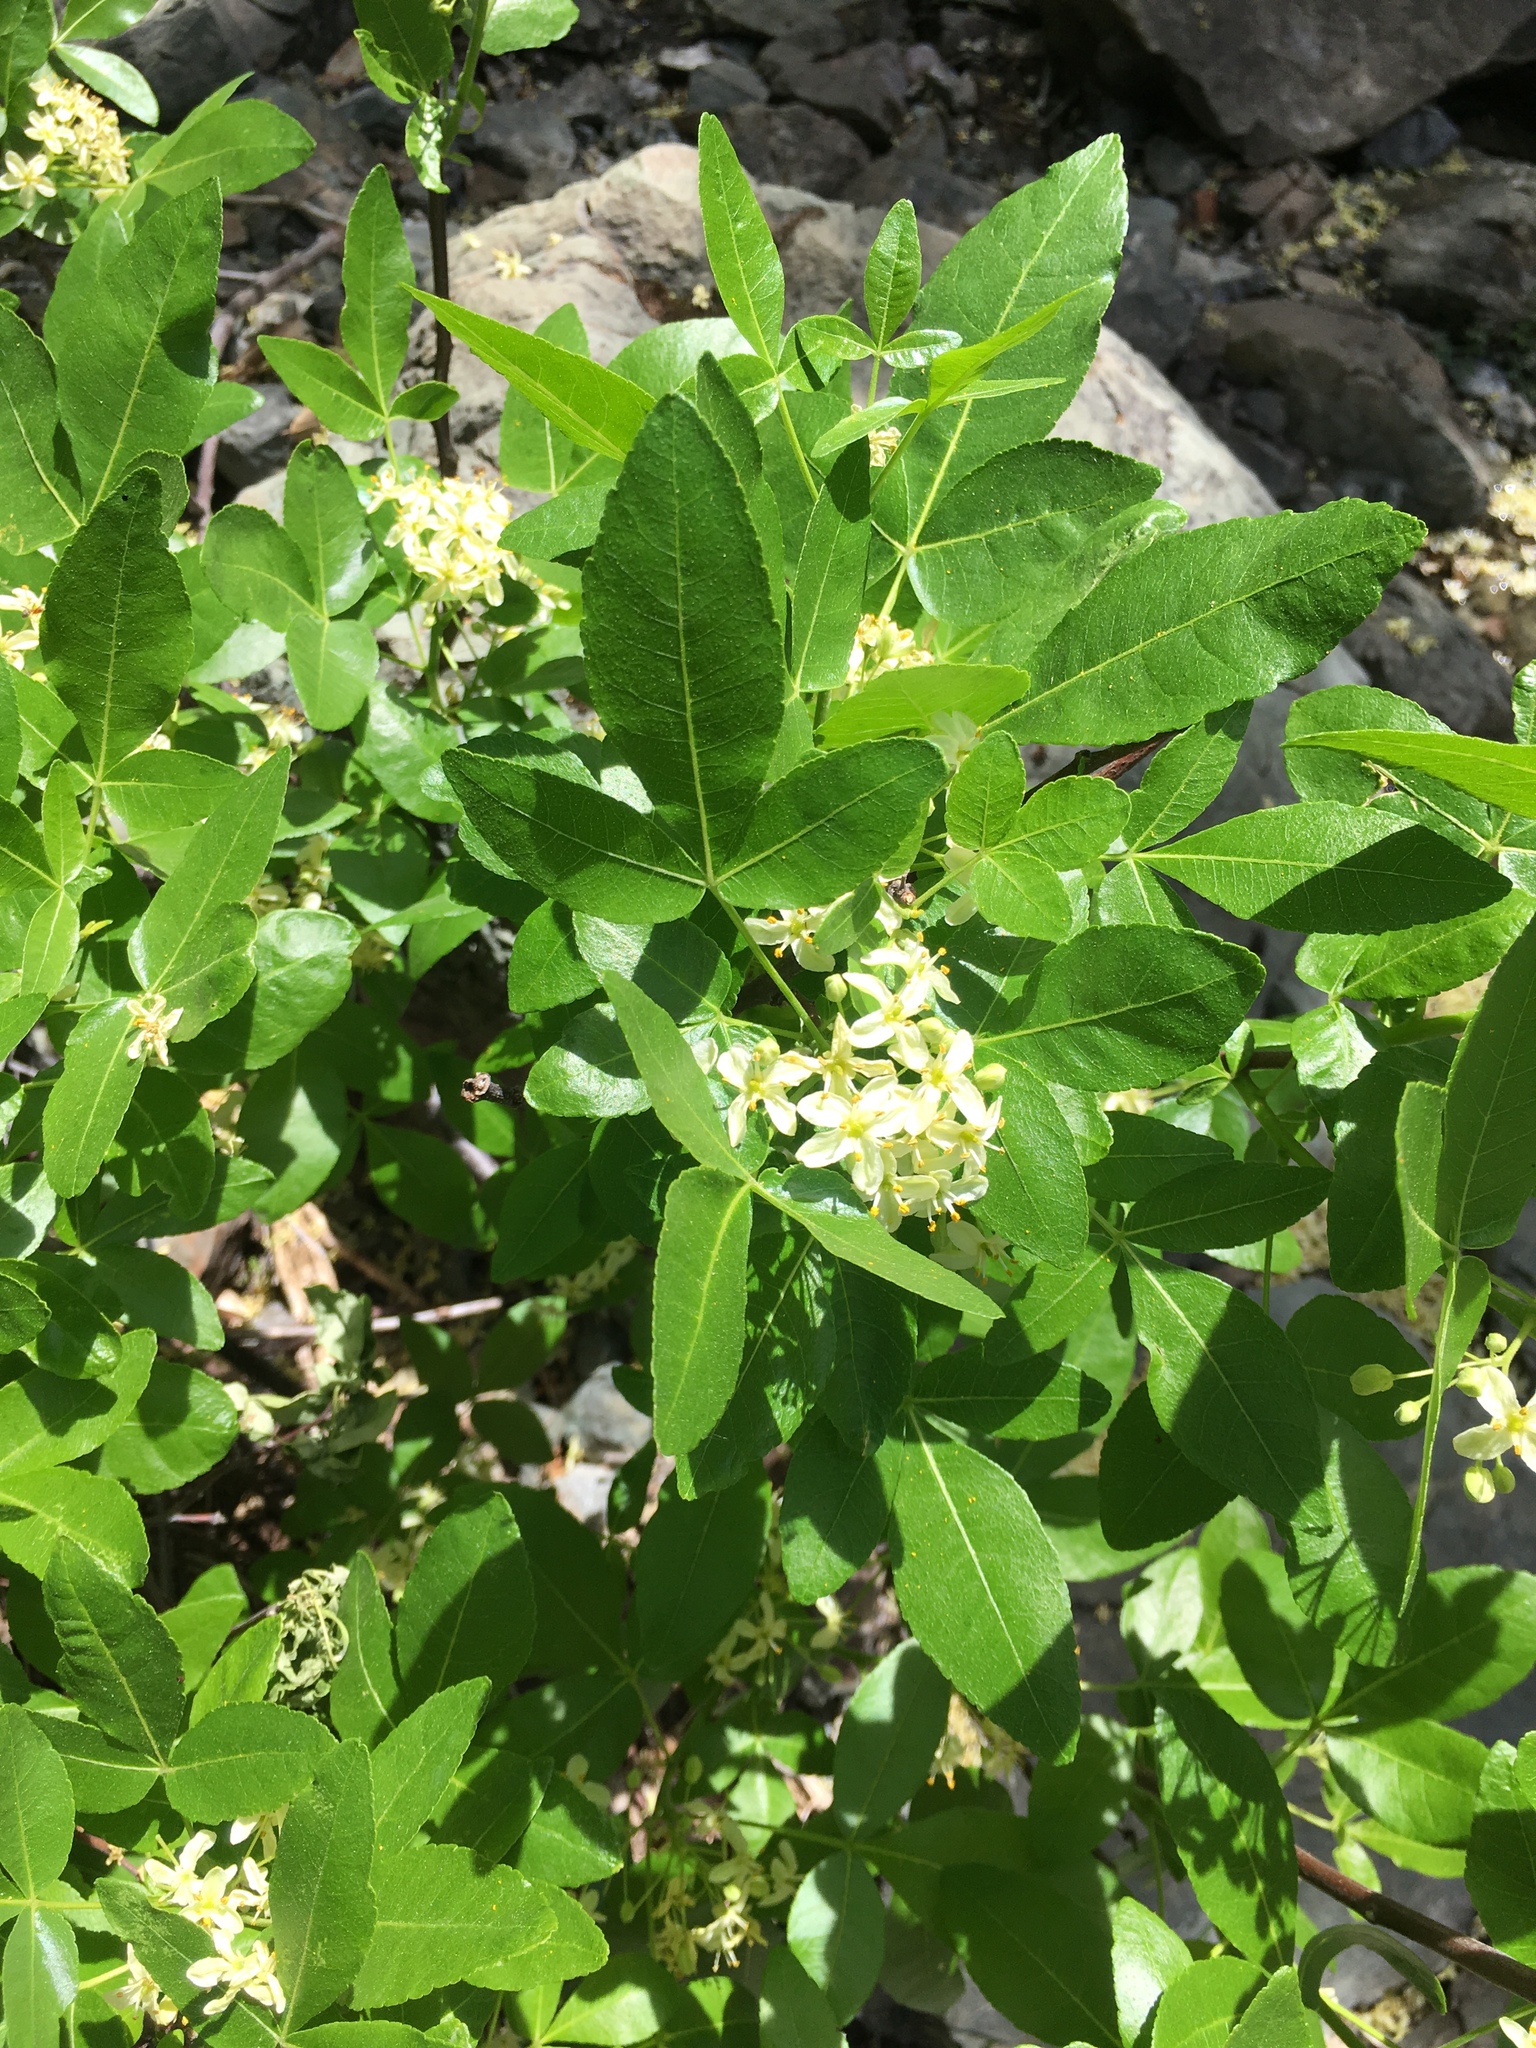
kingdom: Plantae
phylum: Tracheophyta
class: Magnoliopsida
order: Sapindales
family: Rutaceae
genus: Ptelea
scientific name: Ptelea crenulata
